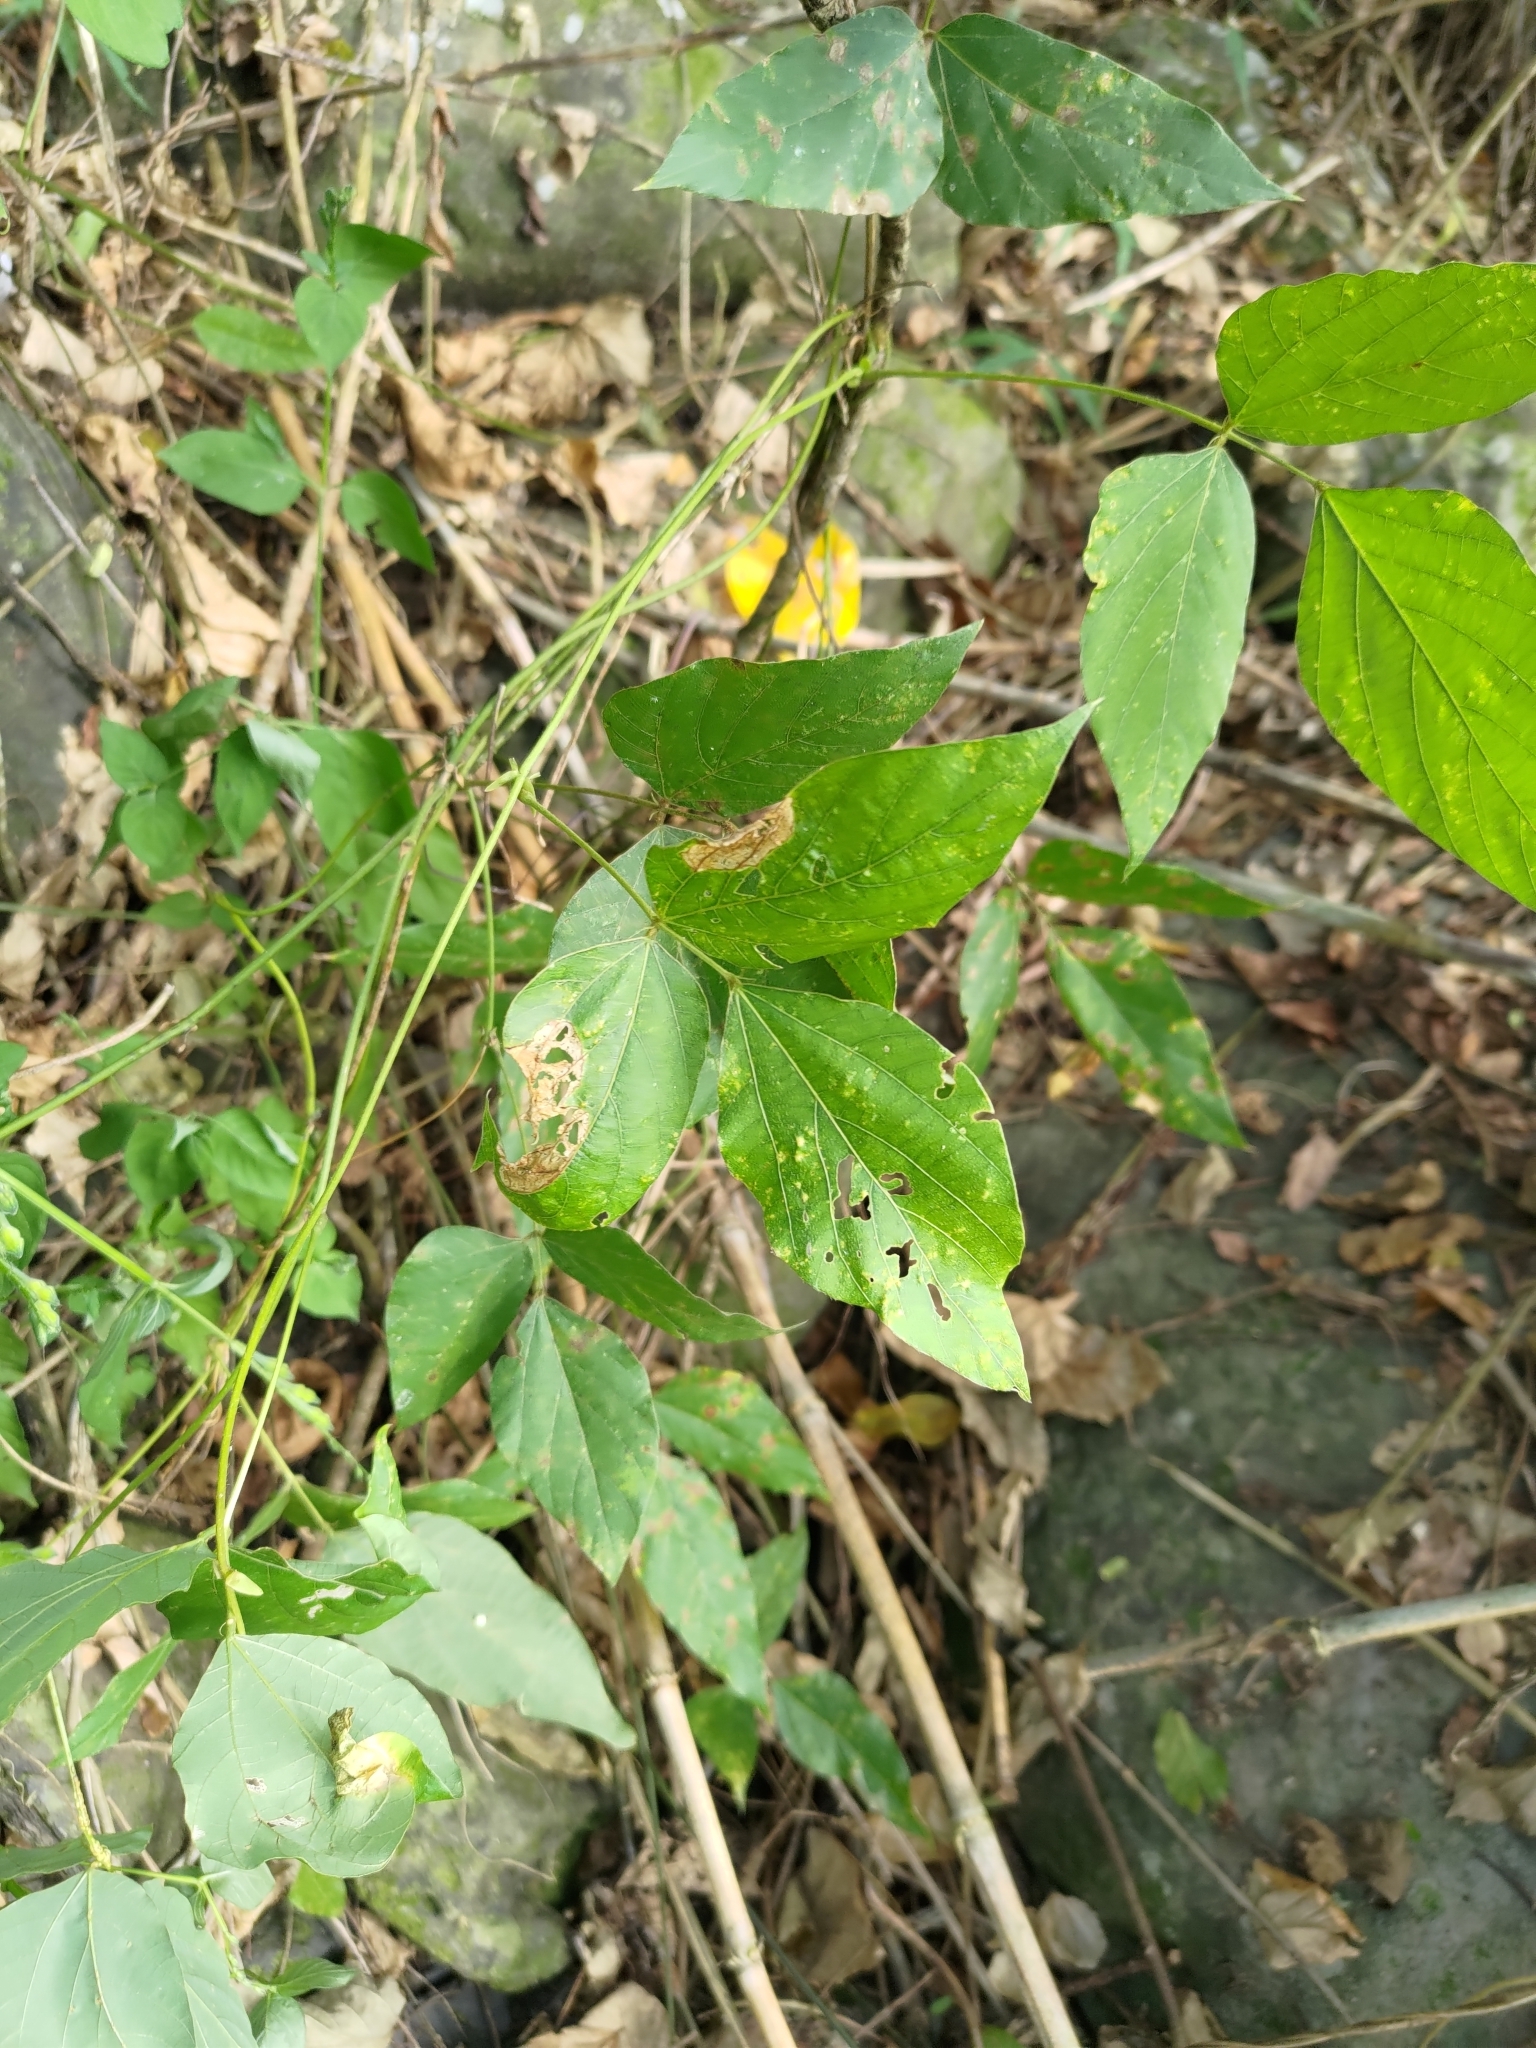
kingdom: Plantae
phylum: Tracheophyta
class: Magnoliopsida
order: Fabales
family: Fabaceae
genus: Pueraria
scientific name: Pueraria montana
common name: Kudzu
